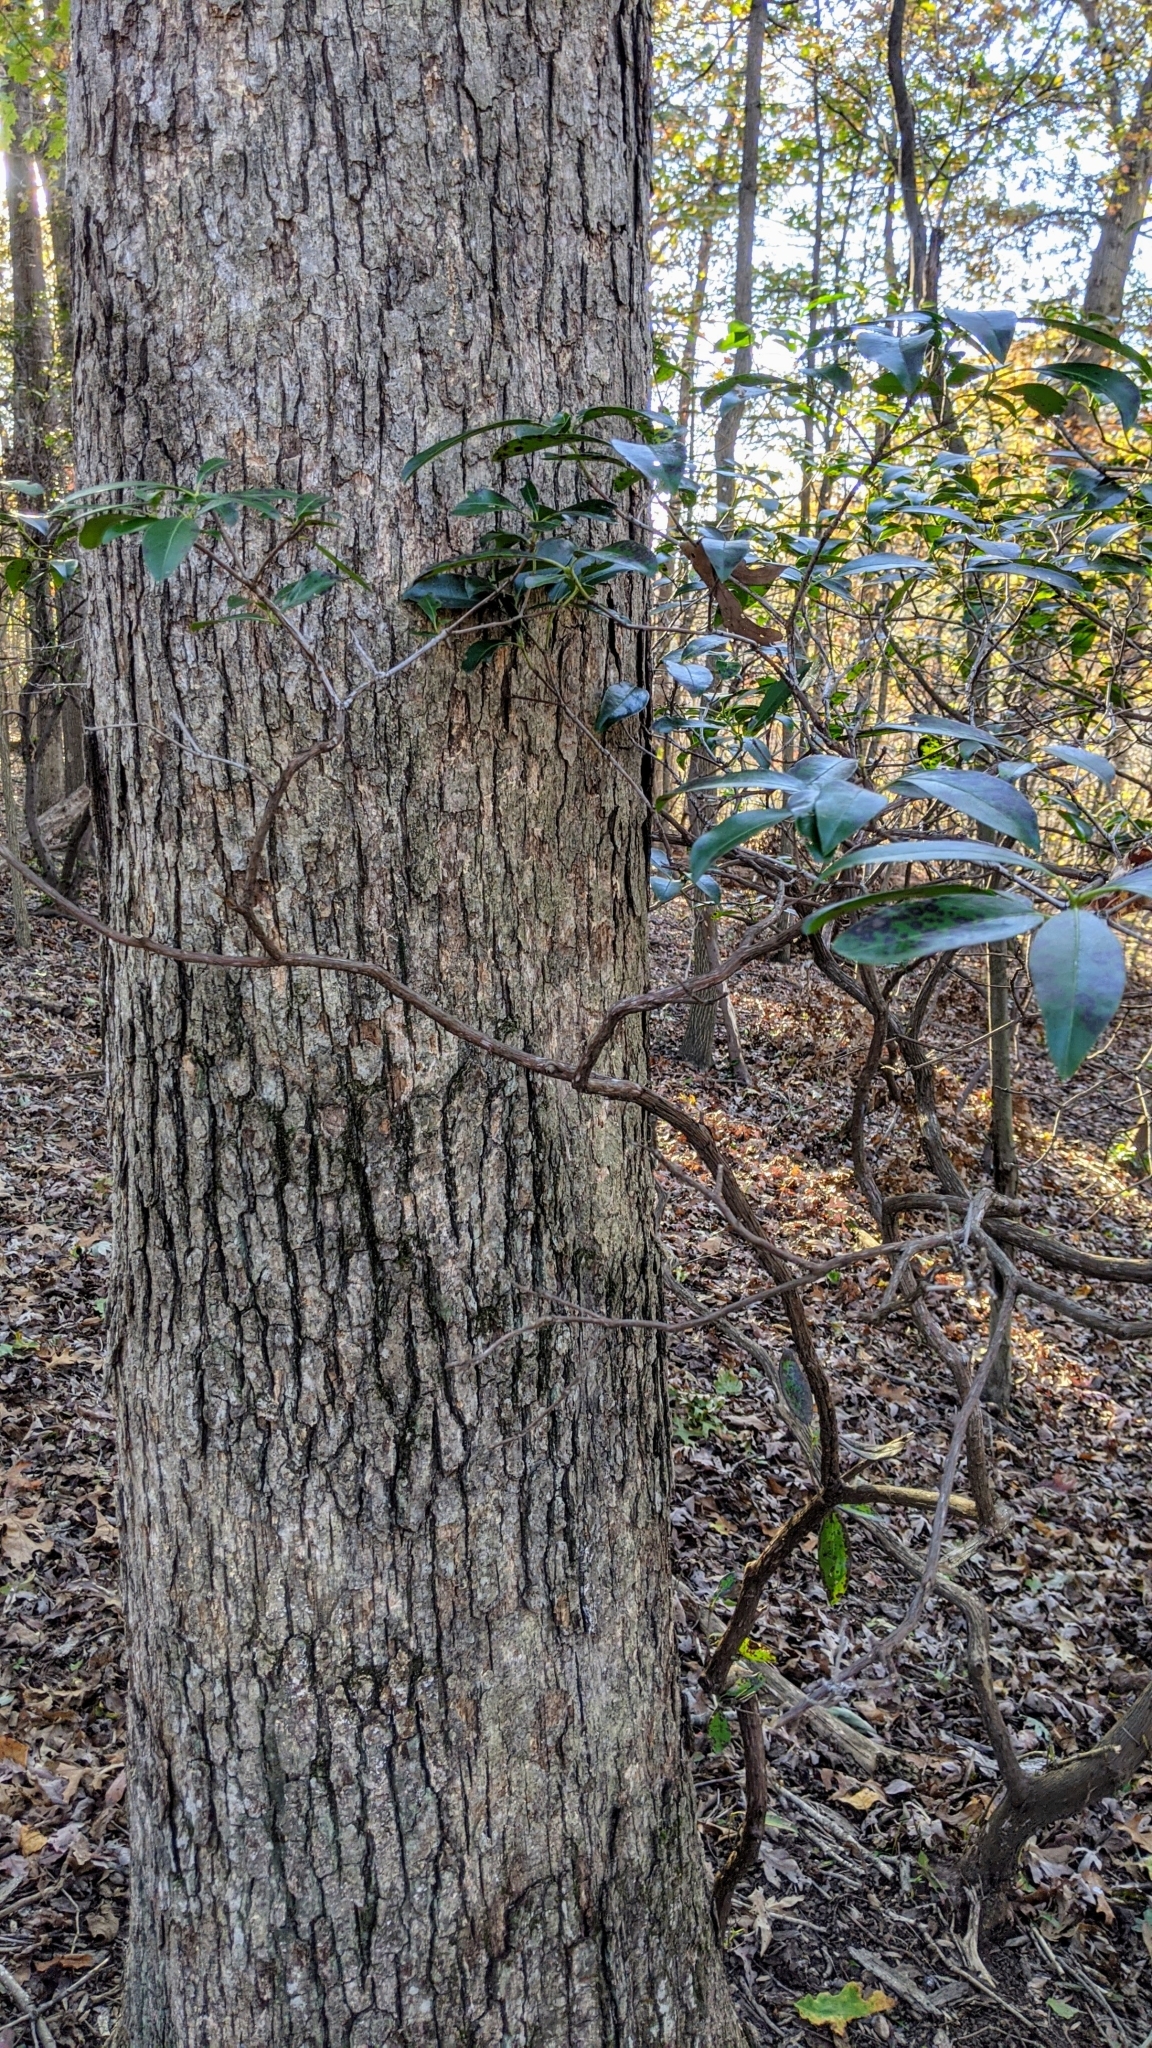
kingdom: Plantae
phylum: Tracheophyta
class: Magnoliopsida
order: Ericales
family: Ericaceae
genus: Kalmia
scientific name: Kalmia latifolia
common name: Mountain-laurel
